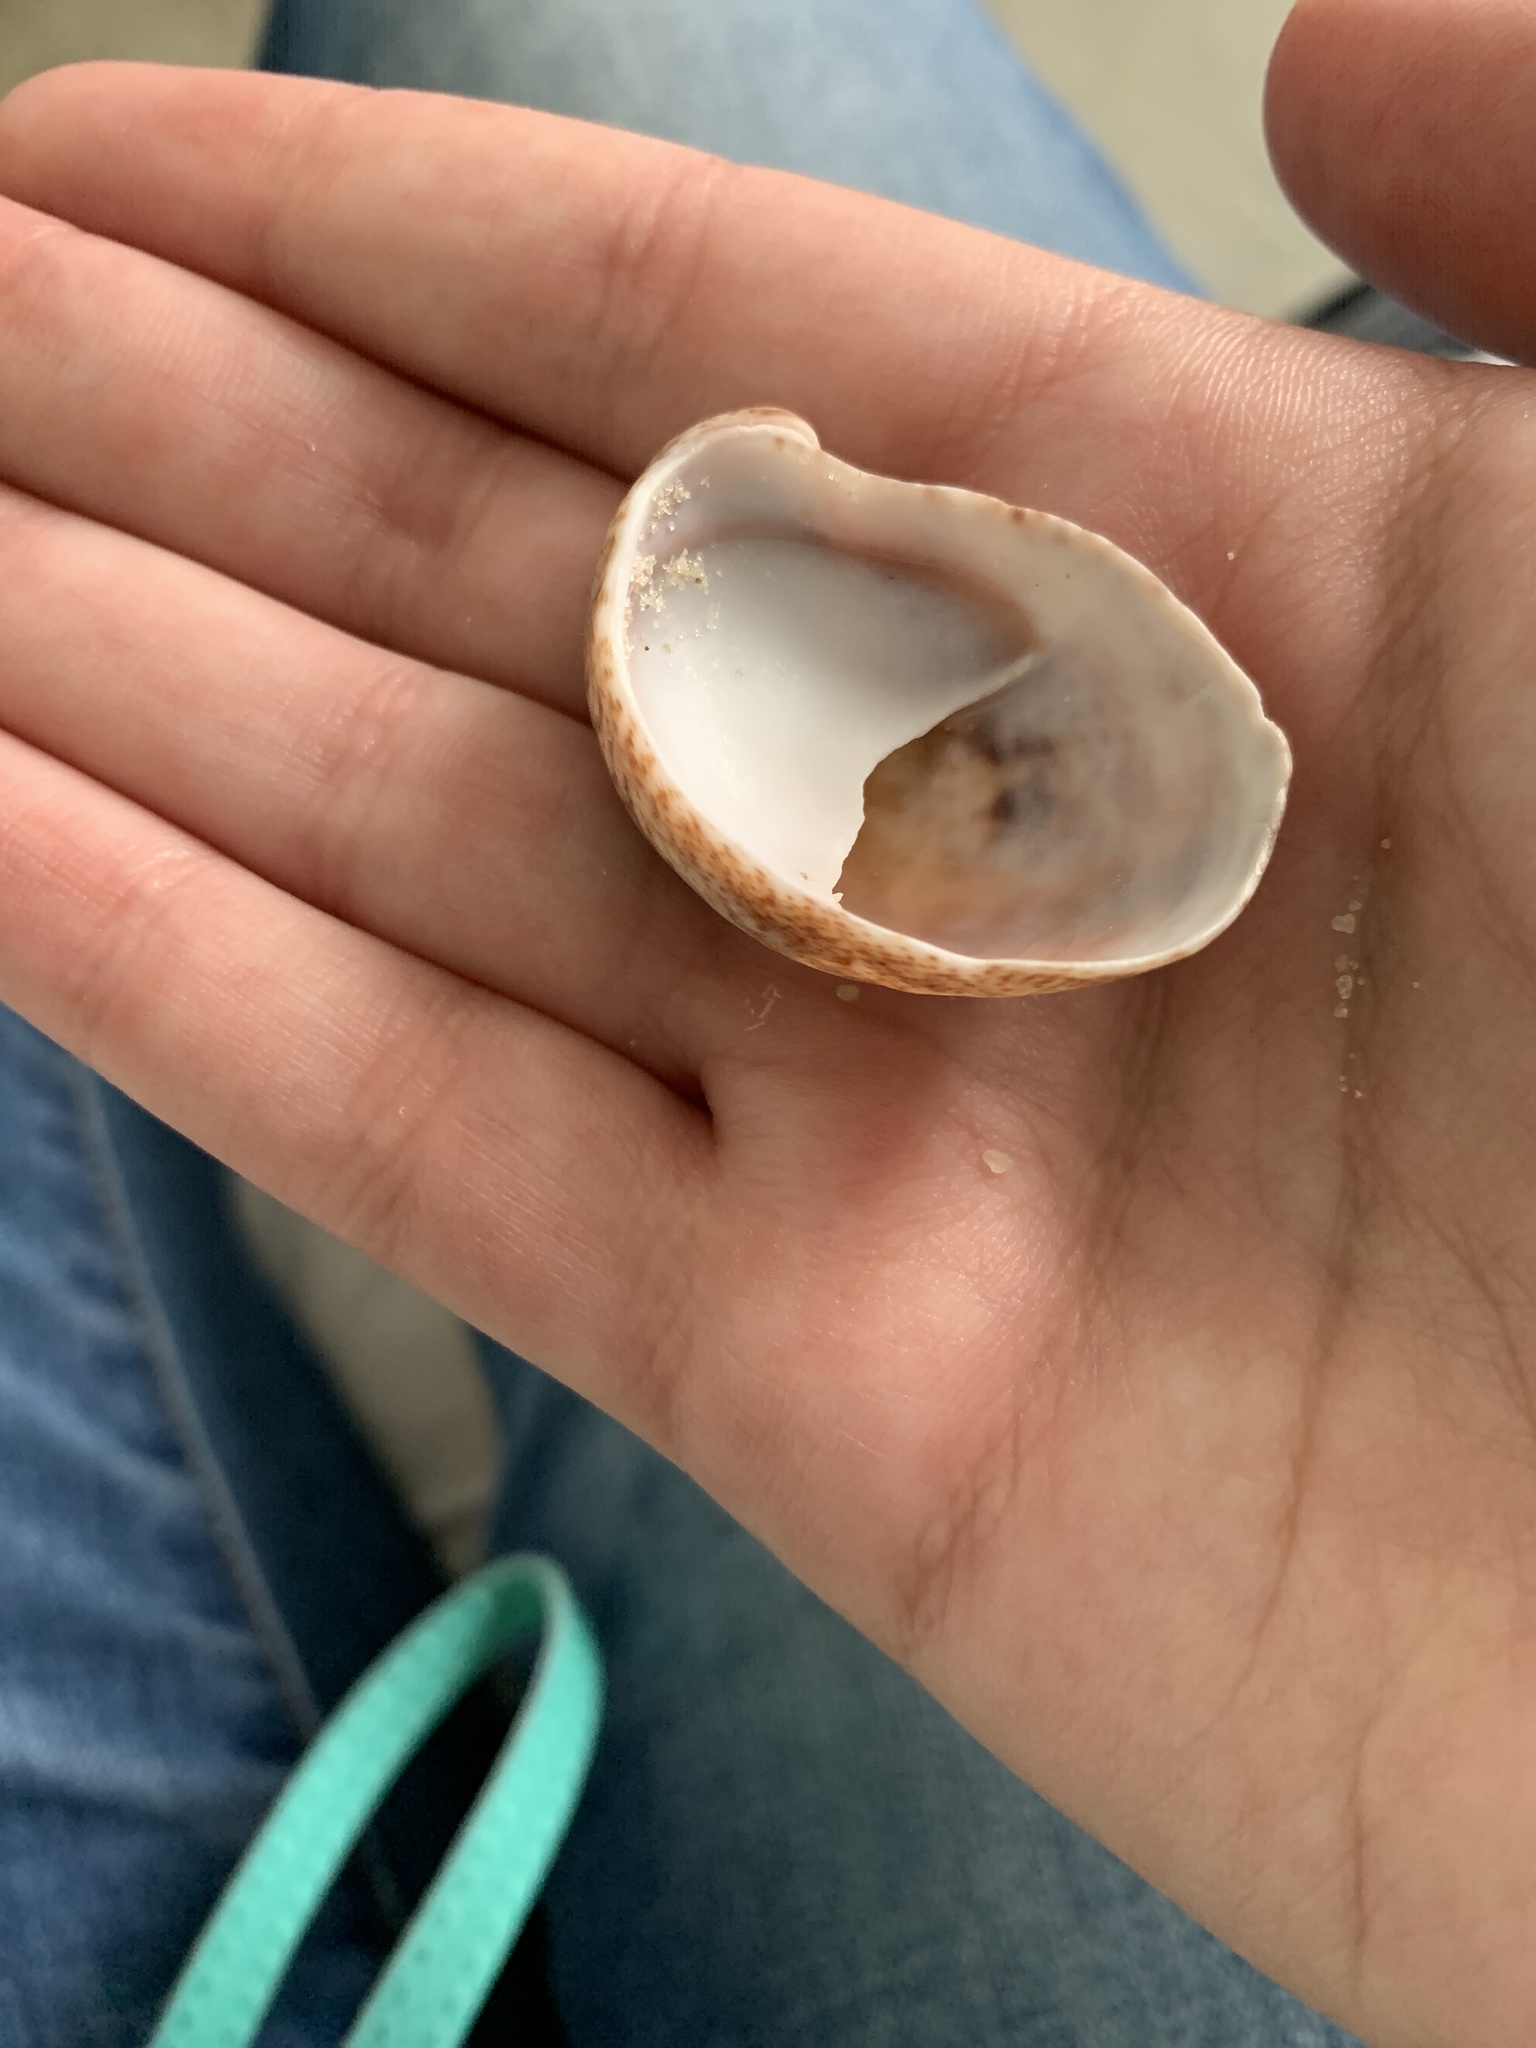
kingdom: Animalia
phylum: Mollusca
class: Gastropoda
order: Littorinimorpha
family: Calyptraeidae
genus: Crepidula
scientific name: Crepidula fornicata
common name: Slipper limpet
